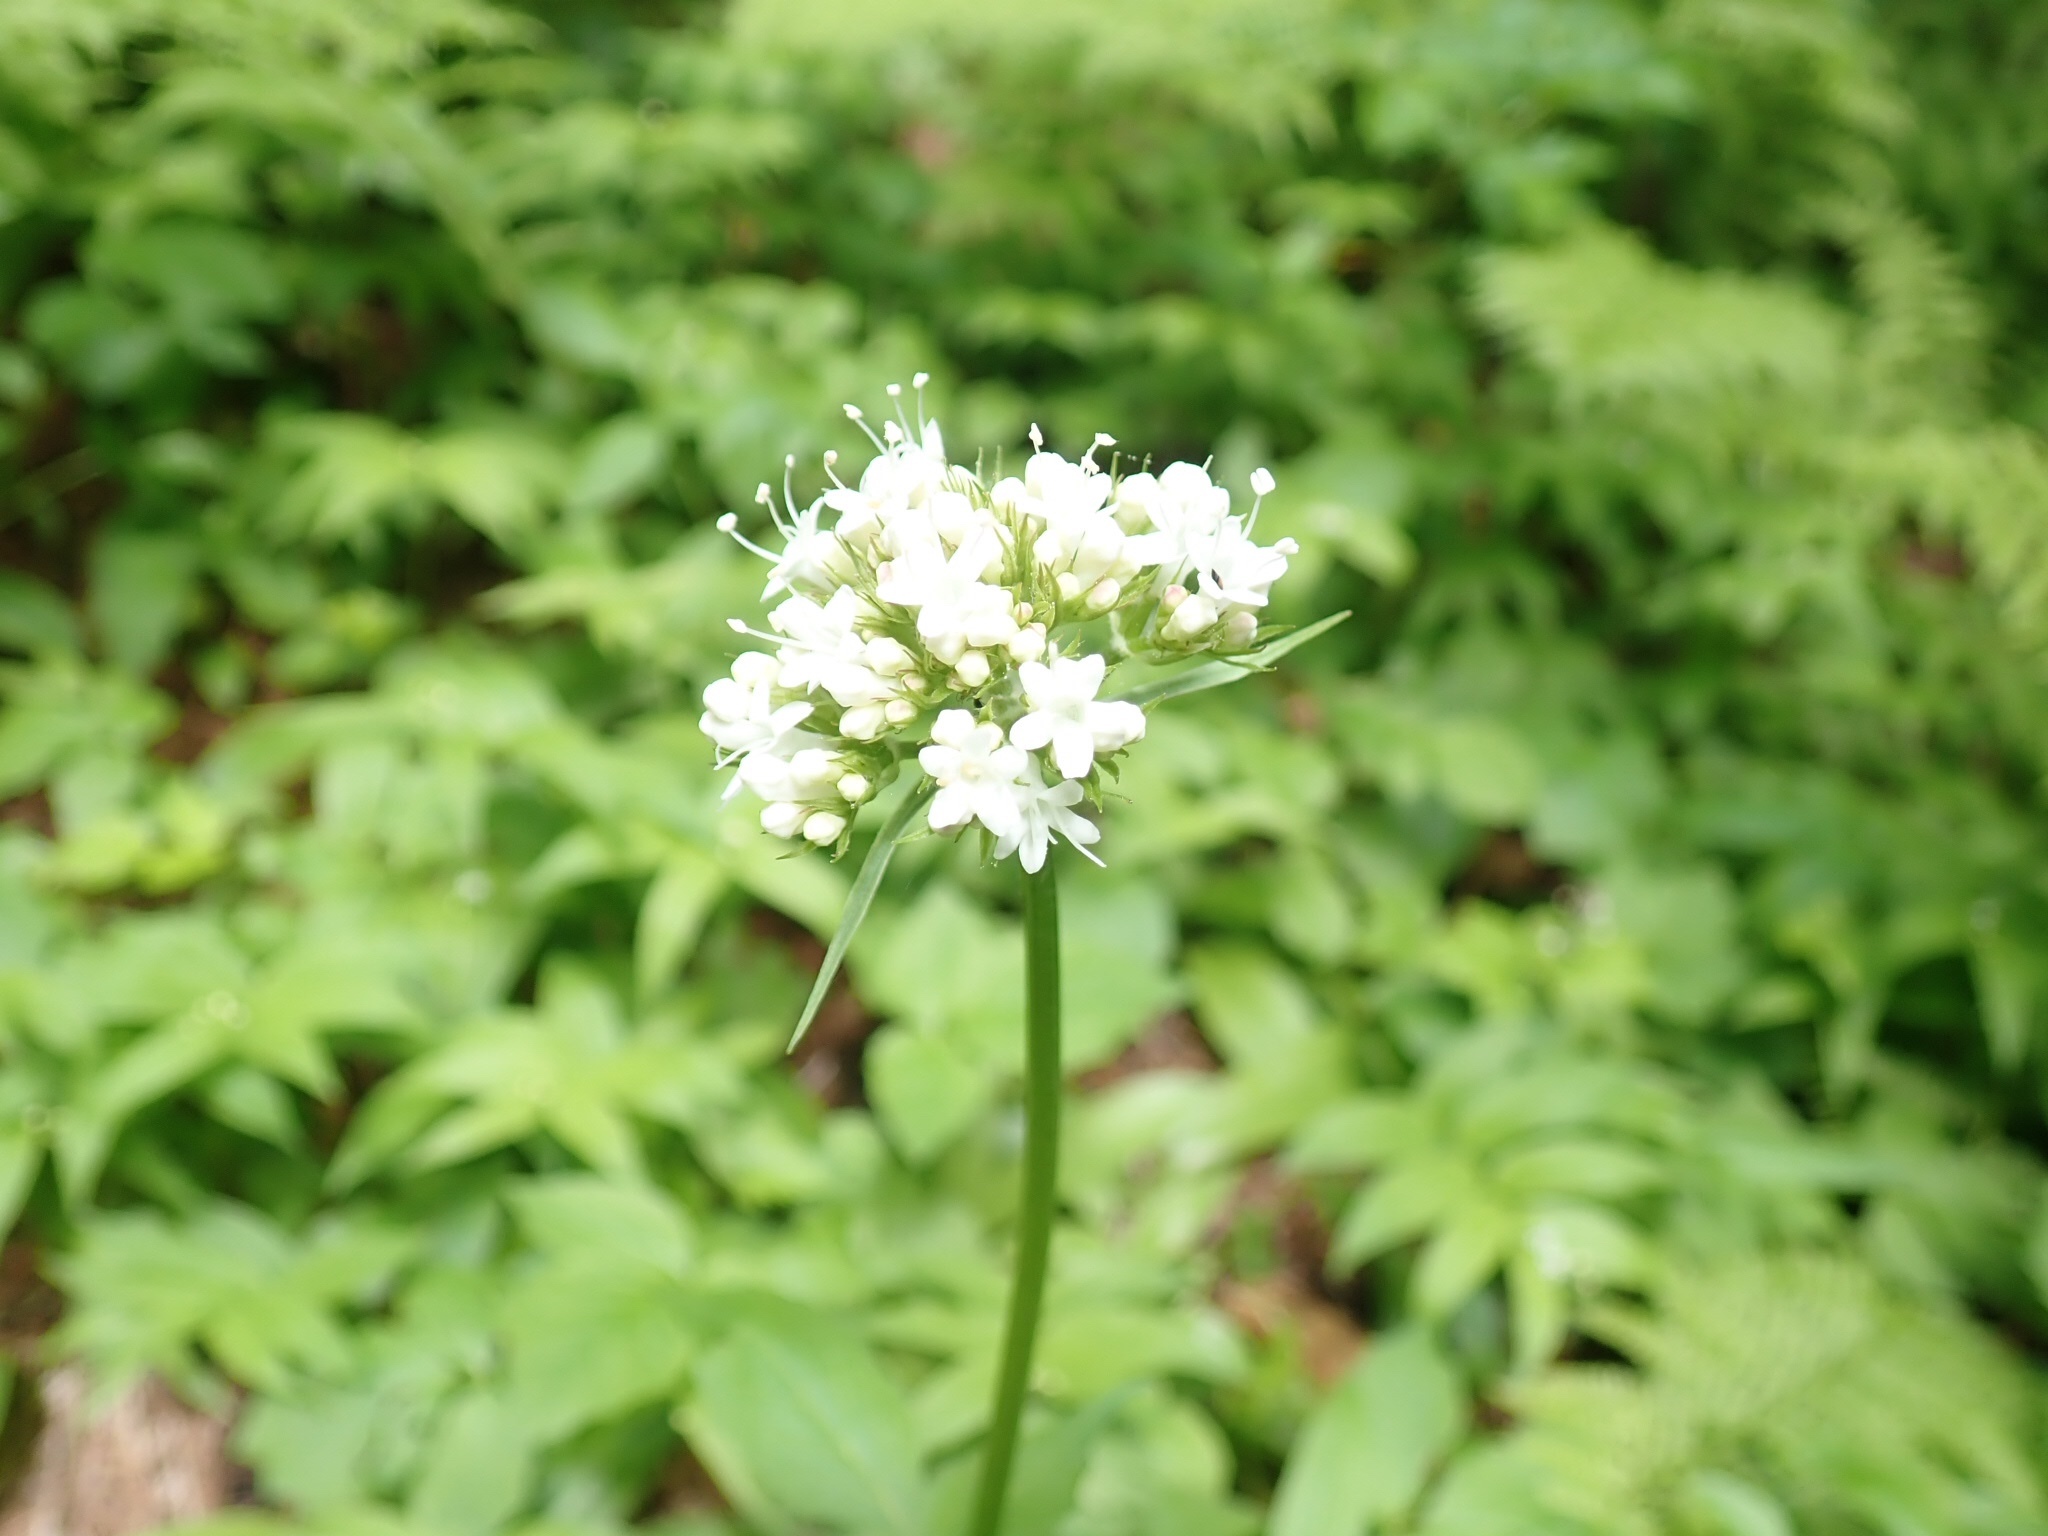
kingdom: Plantae
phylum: Tracheophyta
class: Magnoliopsida
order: Dipsacales
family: Caprifoliaceae
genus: Valeriana
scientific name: Valeriana sitchensis
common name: Pacific valerian
